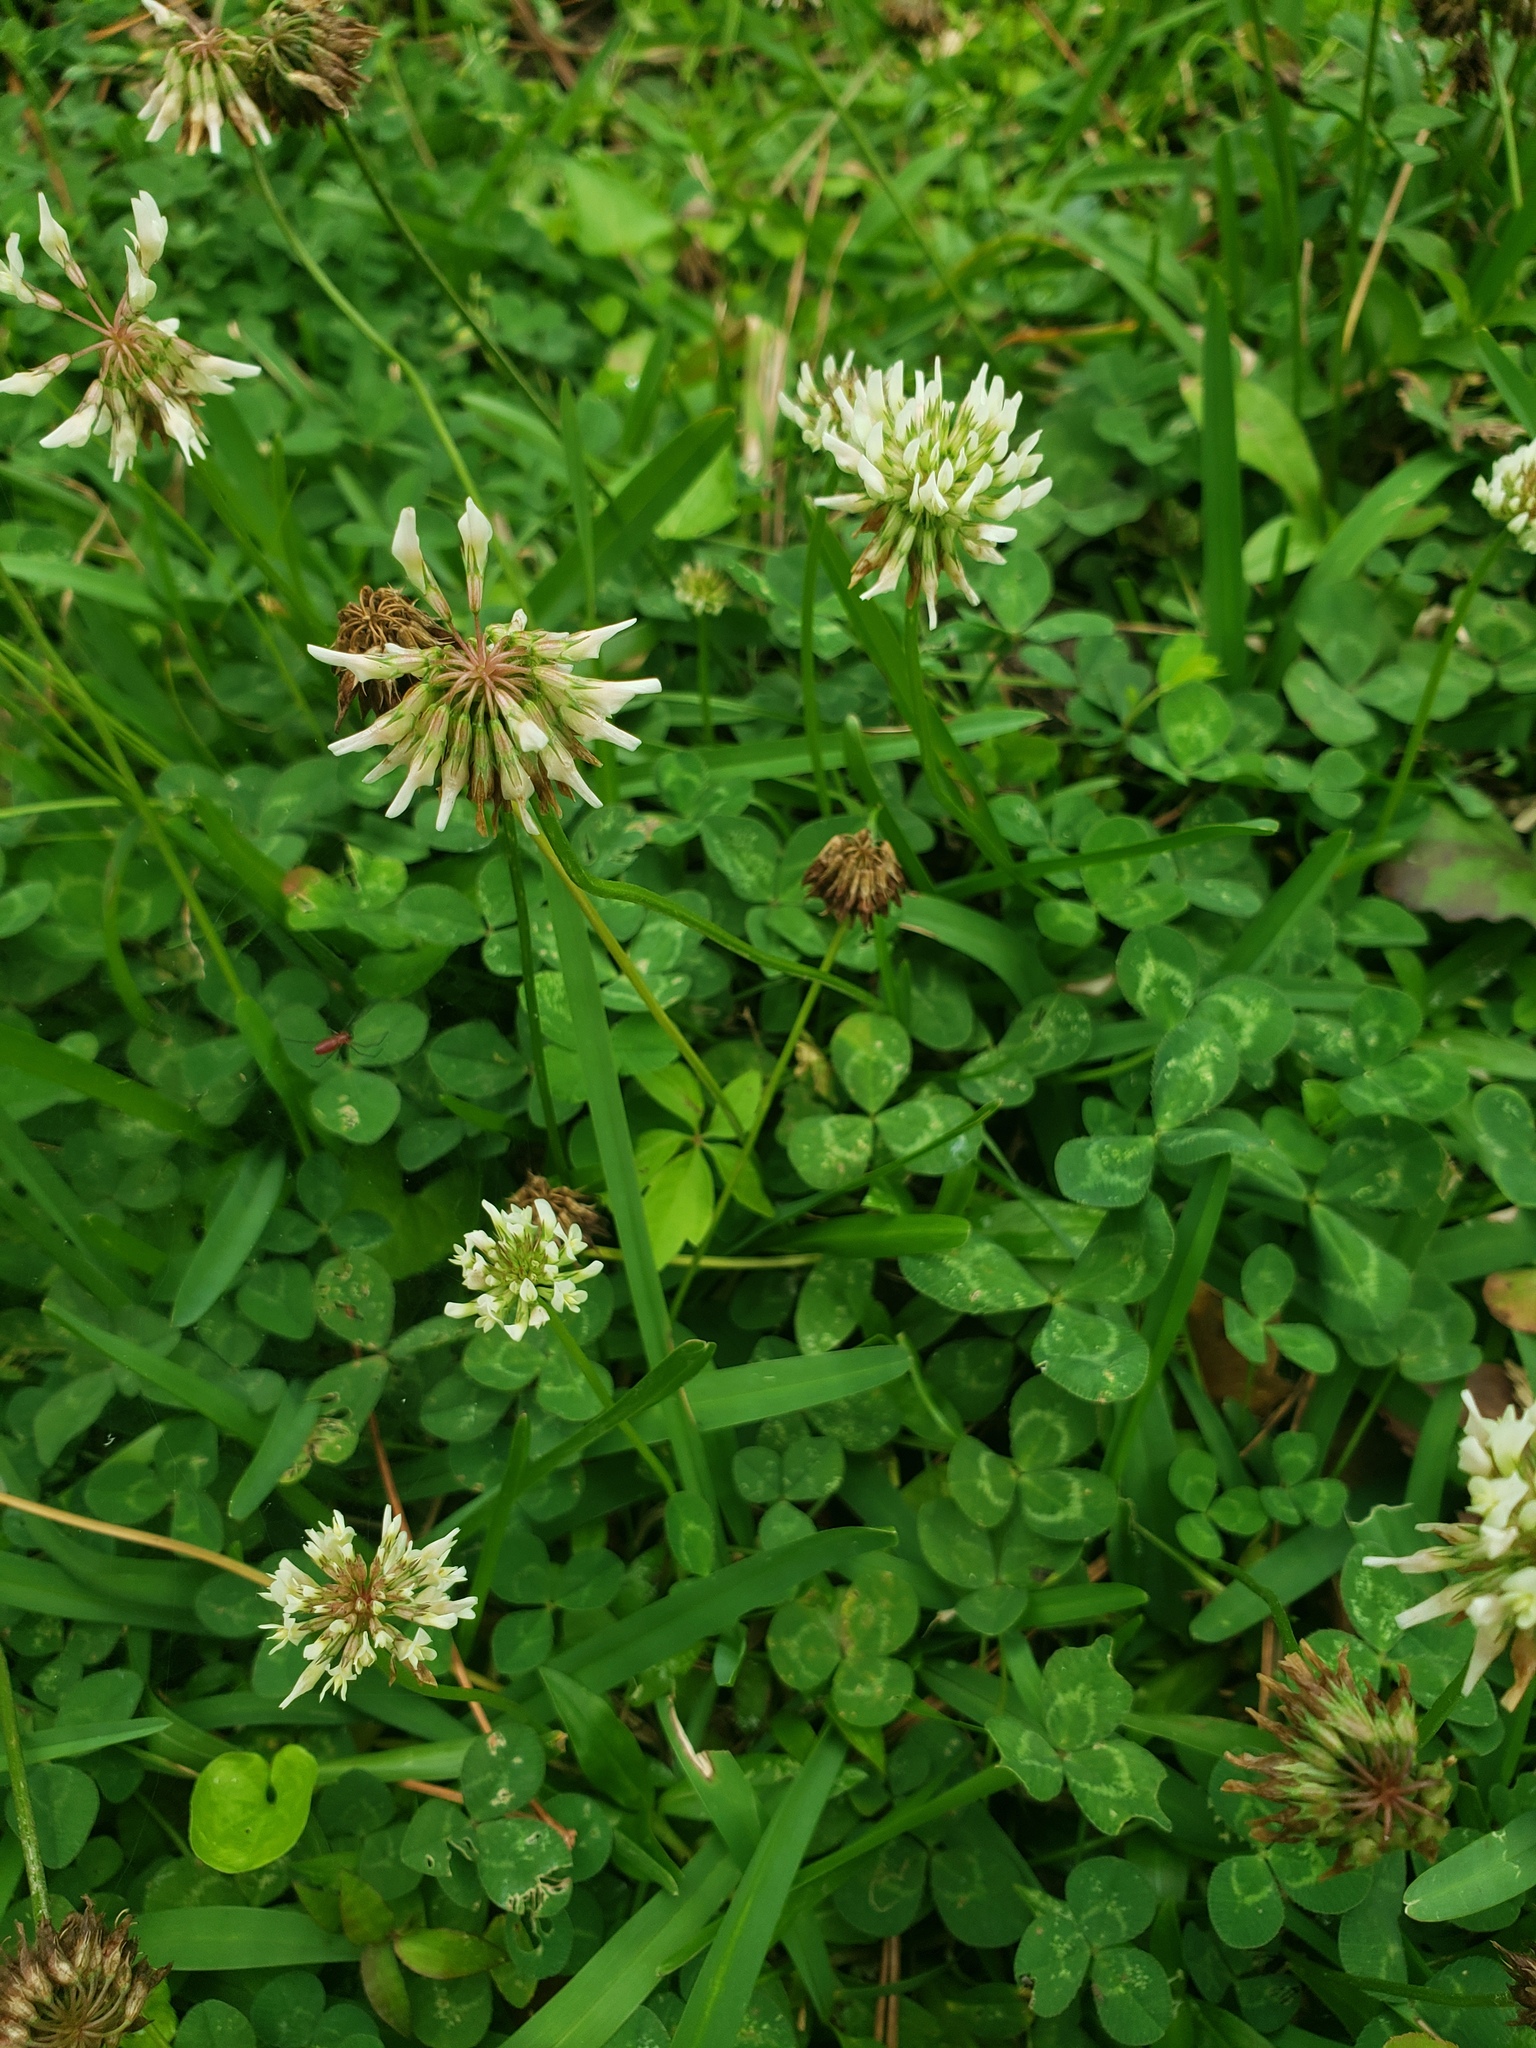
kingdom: Plantae
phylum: Tracheophyta
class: Magnoliopsida
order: Fabales
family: Fabaceae
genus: Trifolium
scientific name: Trifolium repens
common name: White clover
